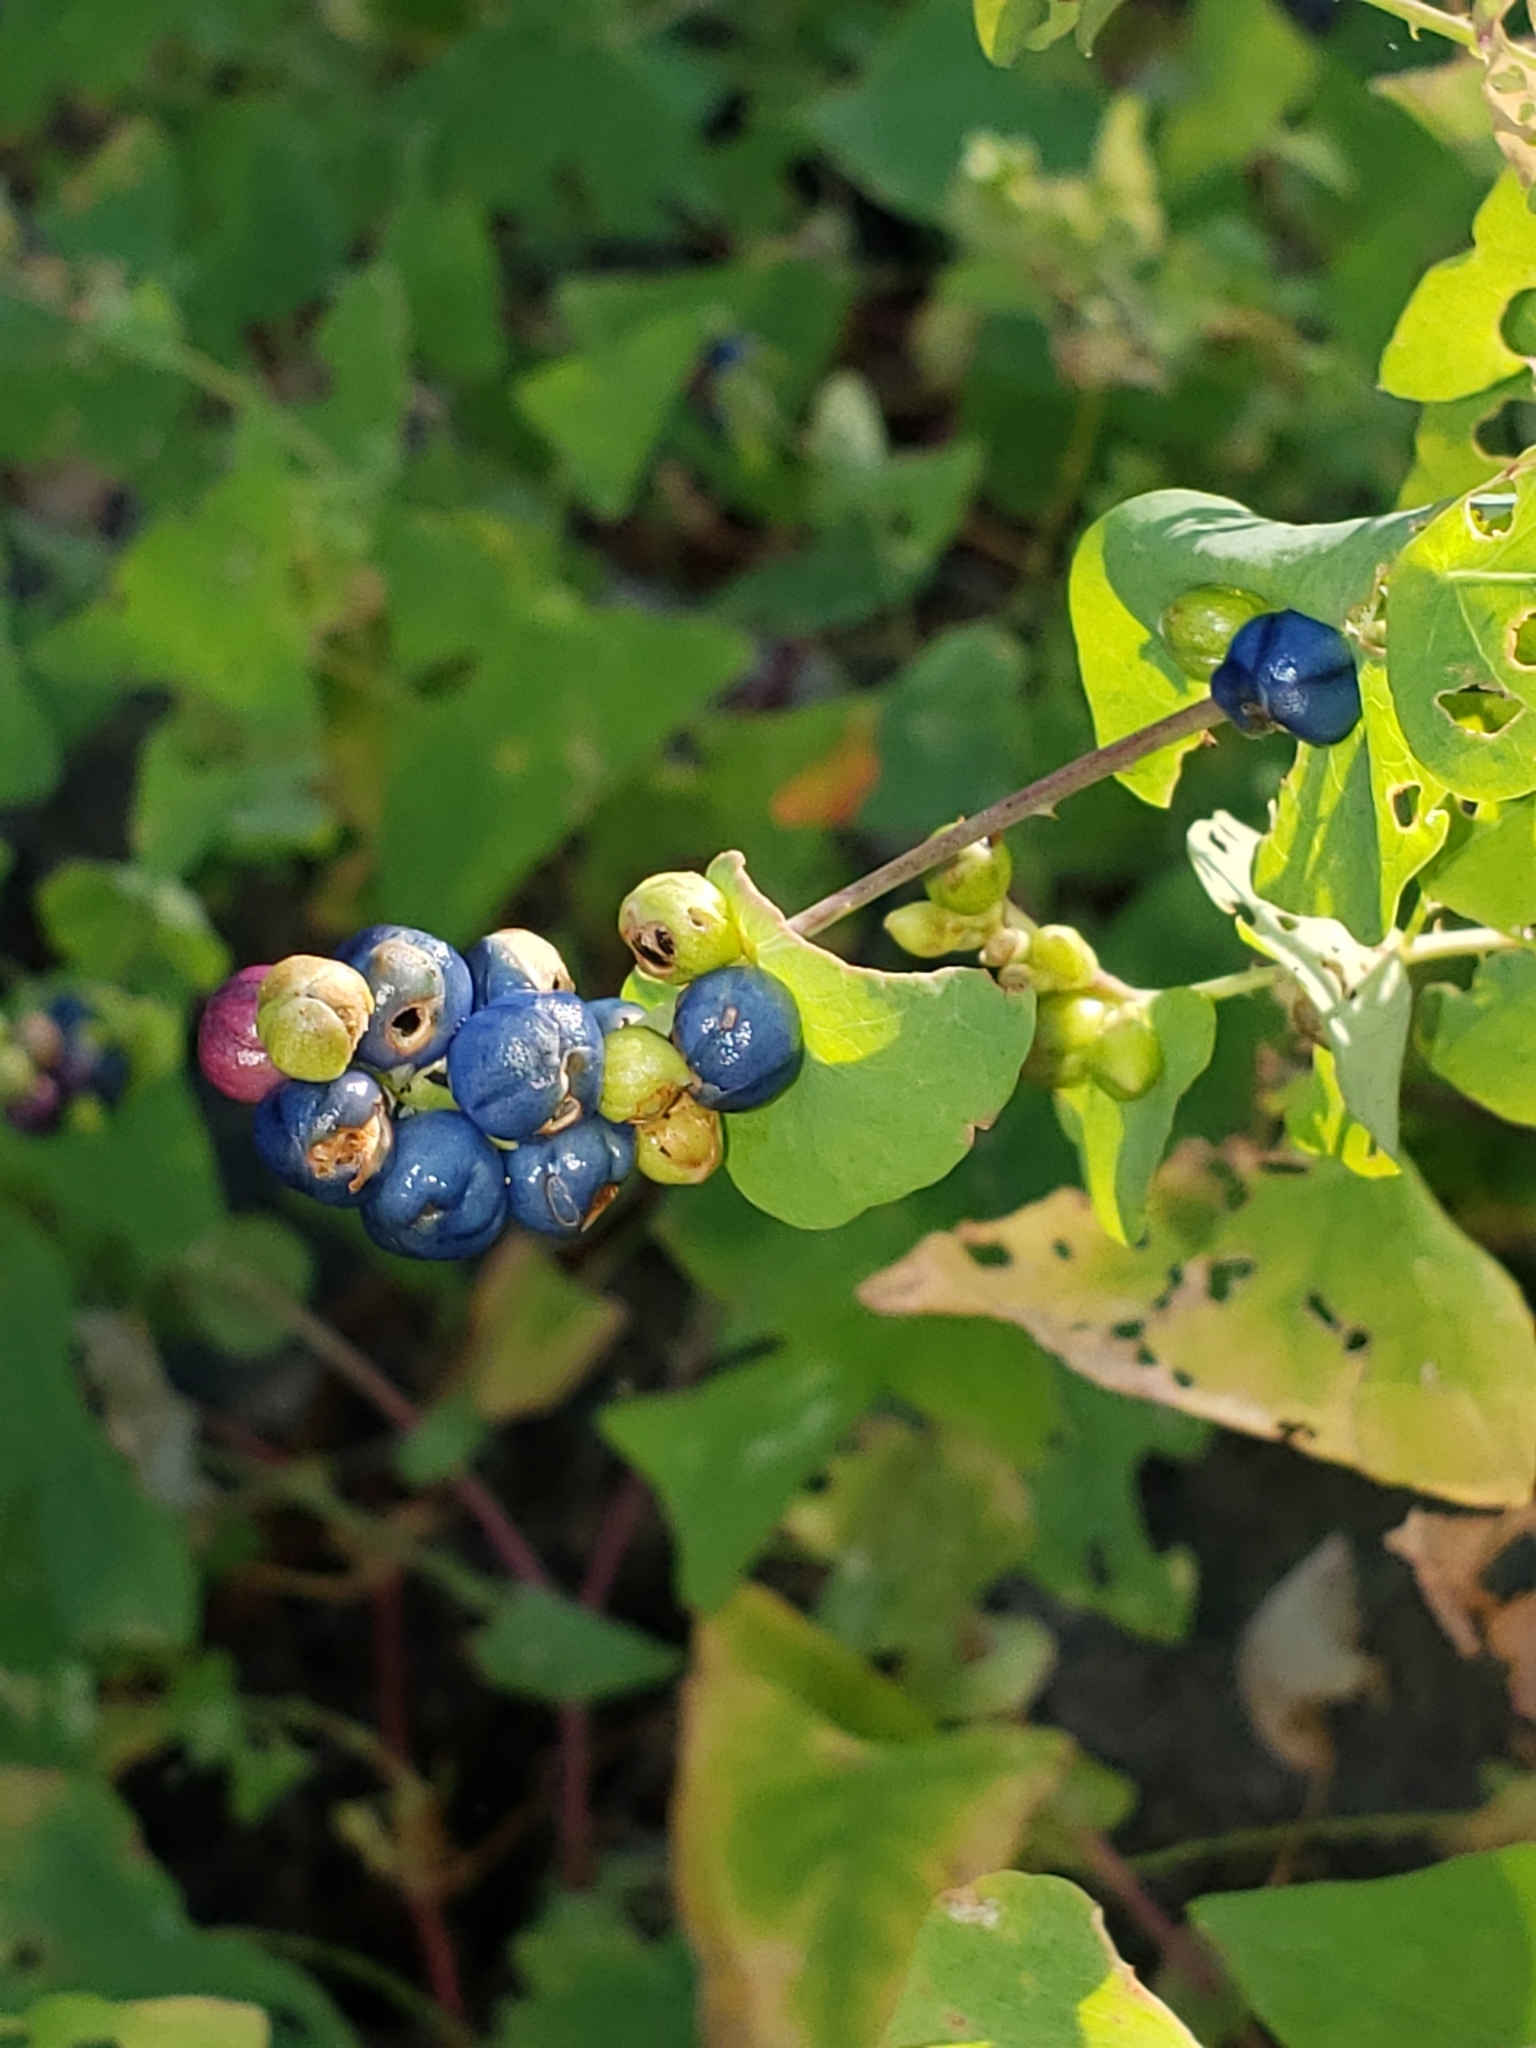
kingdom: Plantae
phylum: Tracheophyta
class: Magnoliopsida
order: Caryophyllales
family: Polygonaceae
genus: Persicaria
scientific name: Persicaria perfoliata
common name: Asiatic tearthumb
